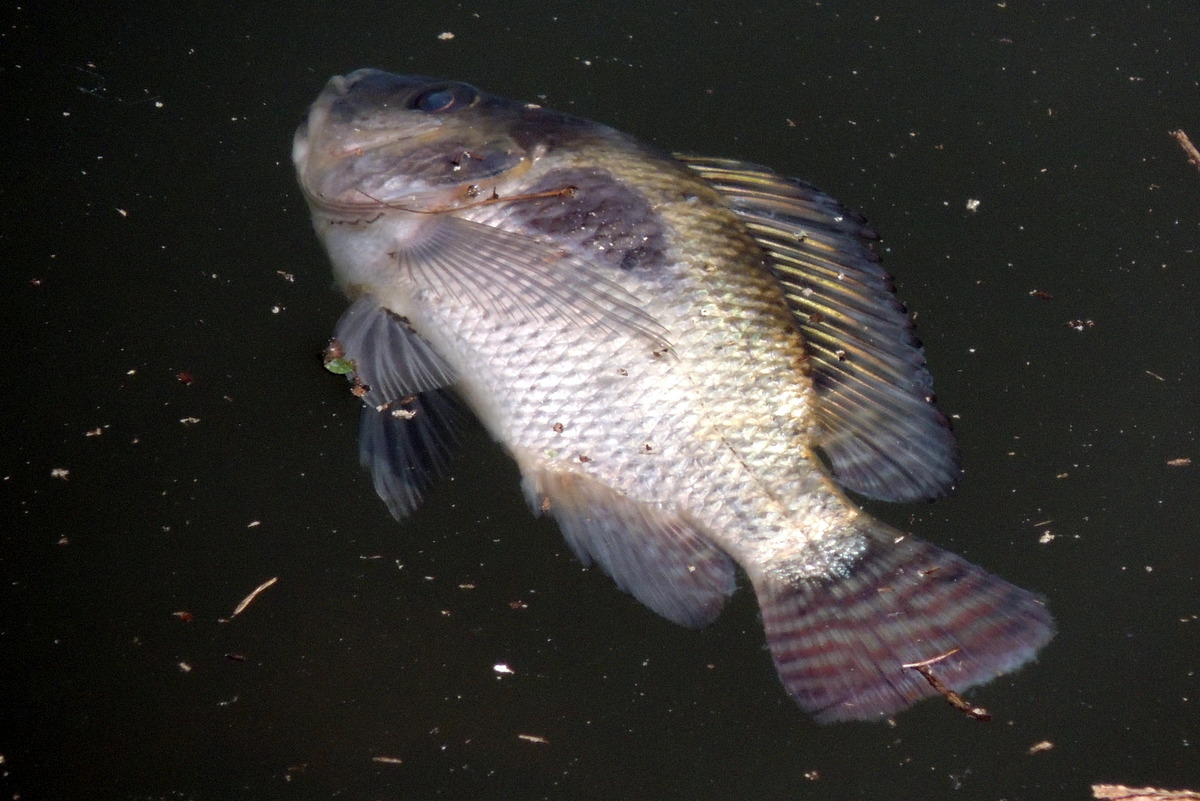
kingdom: Animalia
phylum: Chordata
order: Perciformes
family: Cichlidae
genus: Oreochromis
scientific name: Oreochromis niloticus
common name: Nile tilapia
